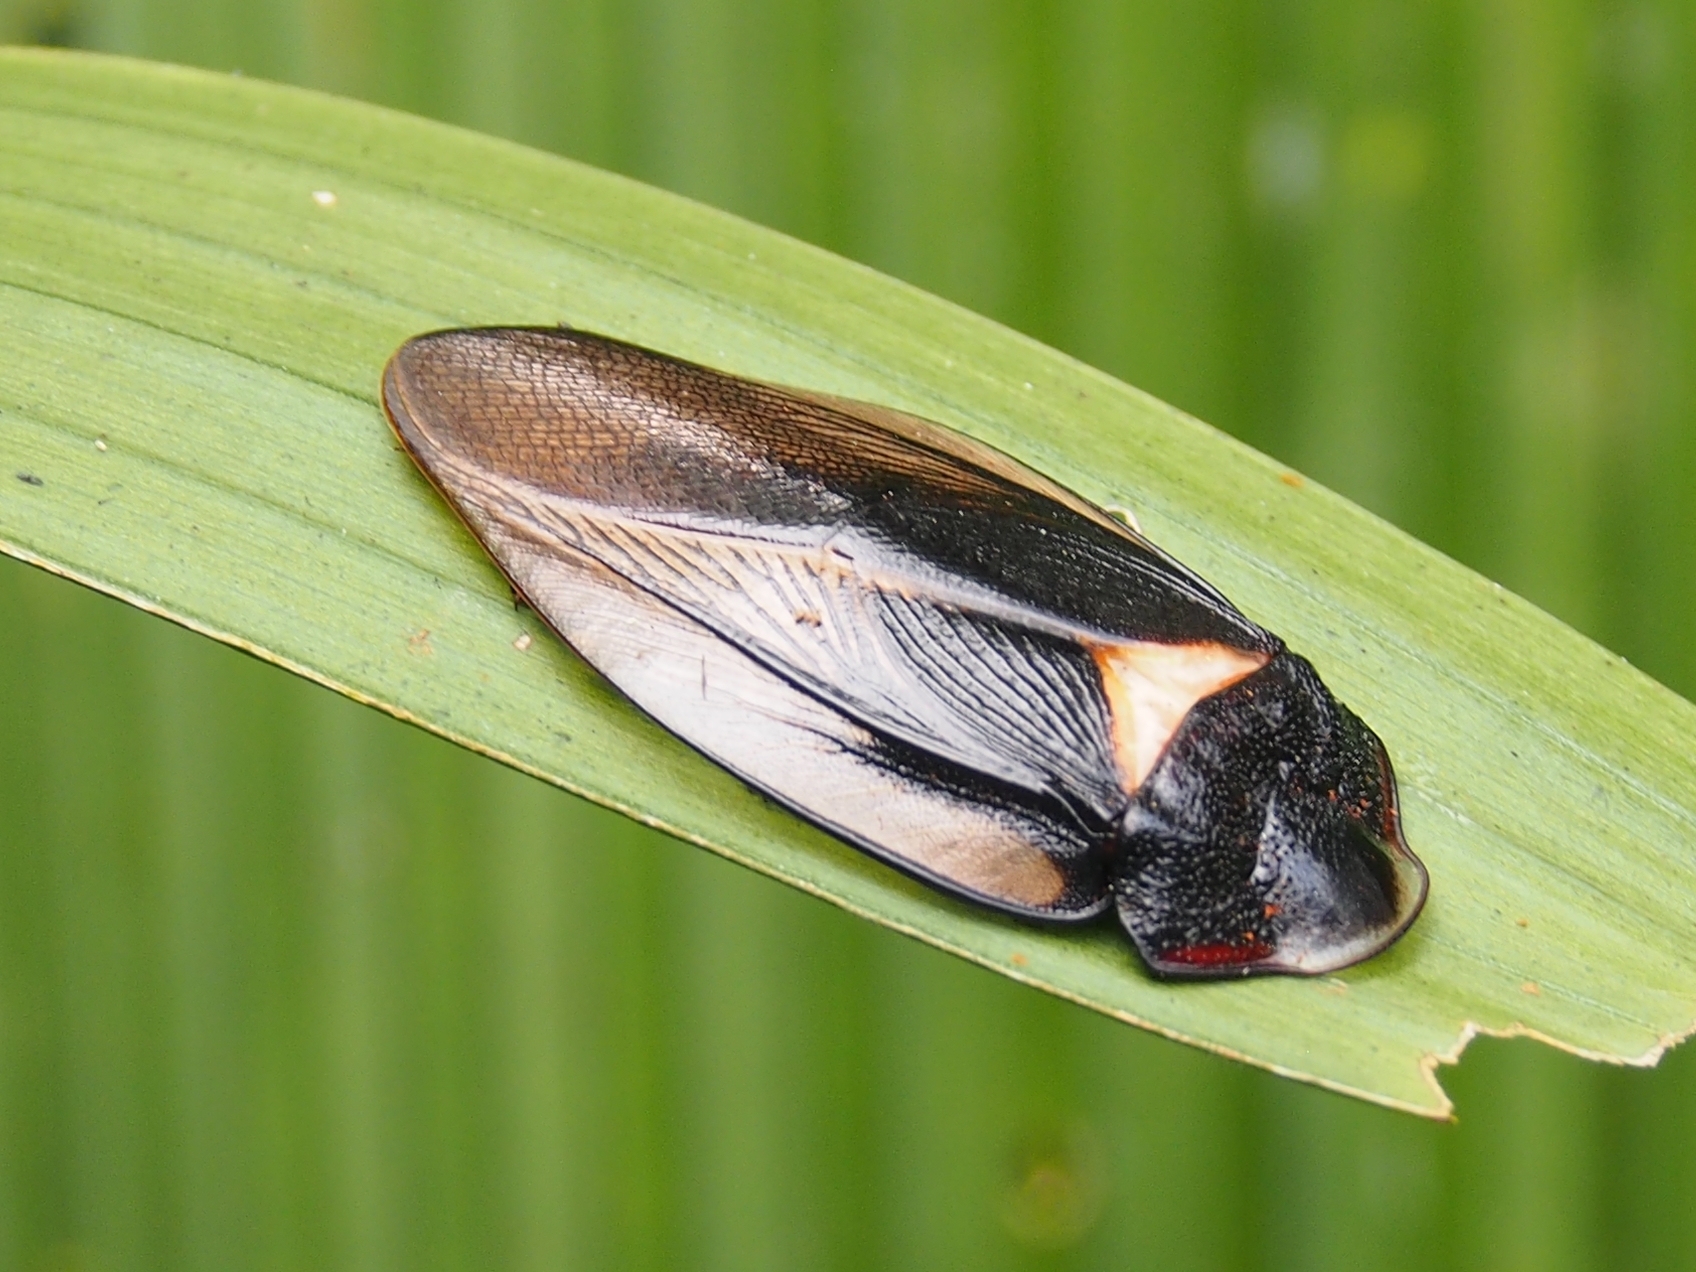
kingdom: Animalia
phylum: Arthropoda
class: Insecta
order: Blattodea
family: Blaberidae
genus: Phortioeca
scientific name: Phortioeca phoraspoides
